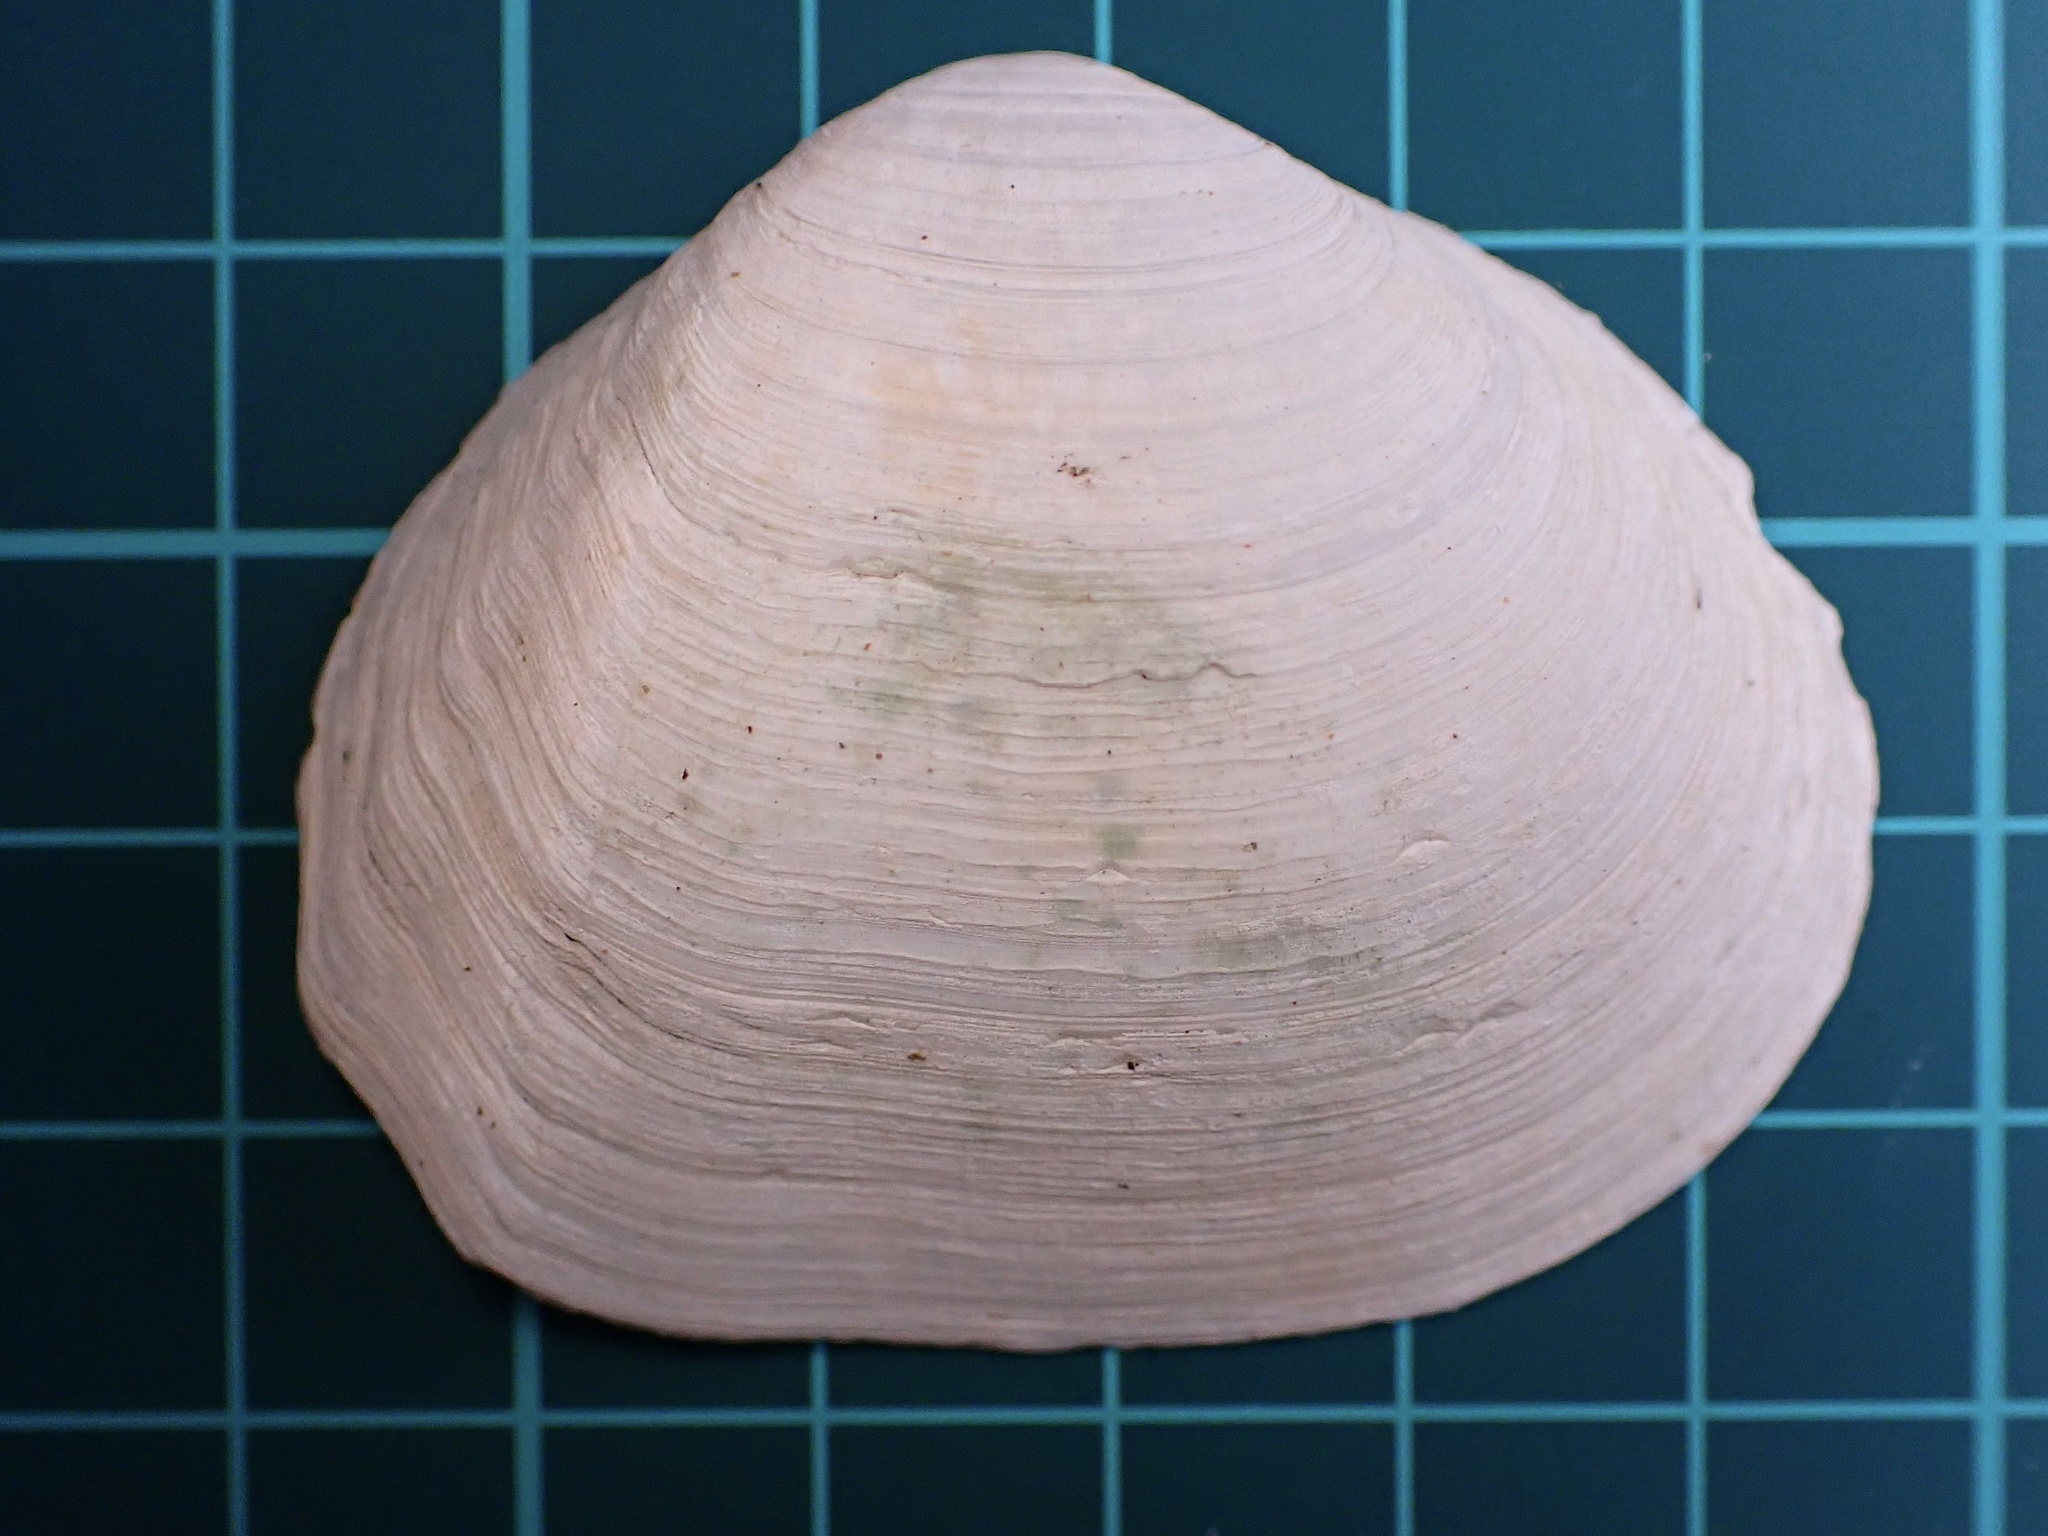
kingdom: Animalia
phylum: Mollusca
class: Bivalvia
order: Cardiida
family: Tellinidae
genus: Leporimetis
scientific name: Leporimetis obesa
